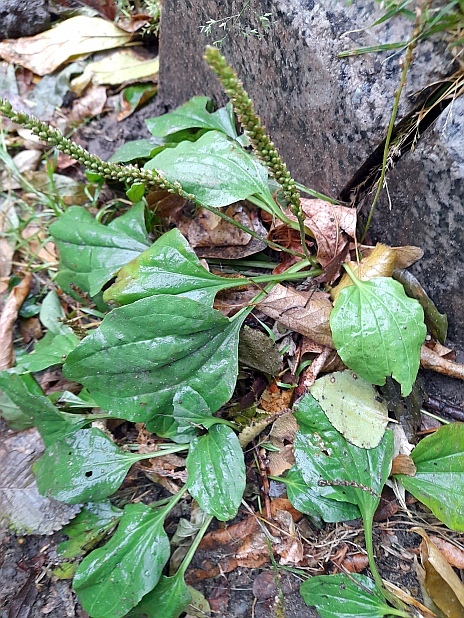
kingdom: Plantae
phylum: Tracheophyta
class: Magnoliopsida
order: Lamiales
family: Plantaginaceae
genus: Plantago
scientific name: Plantago major
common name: Common plantain
